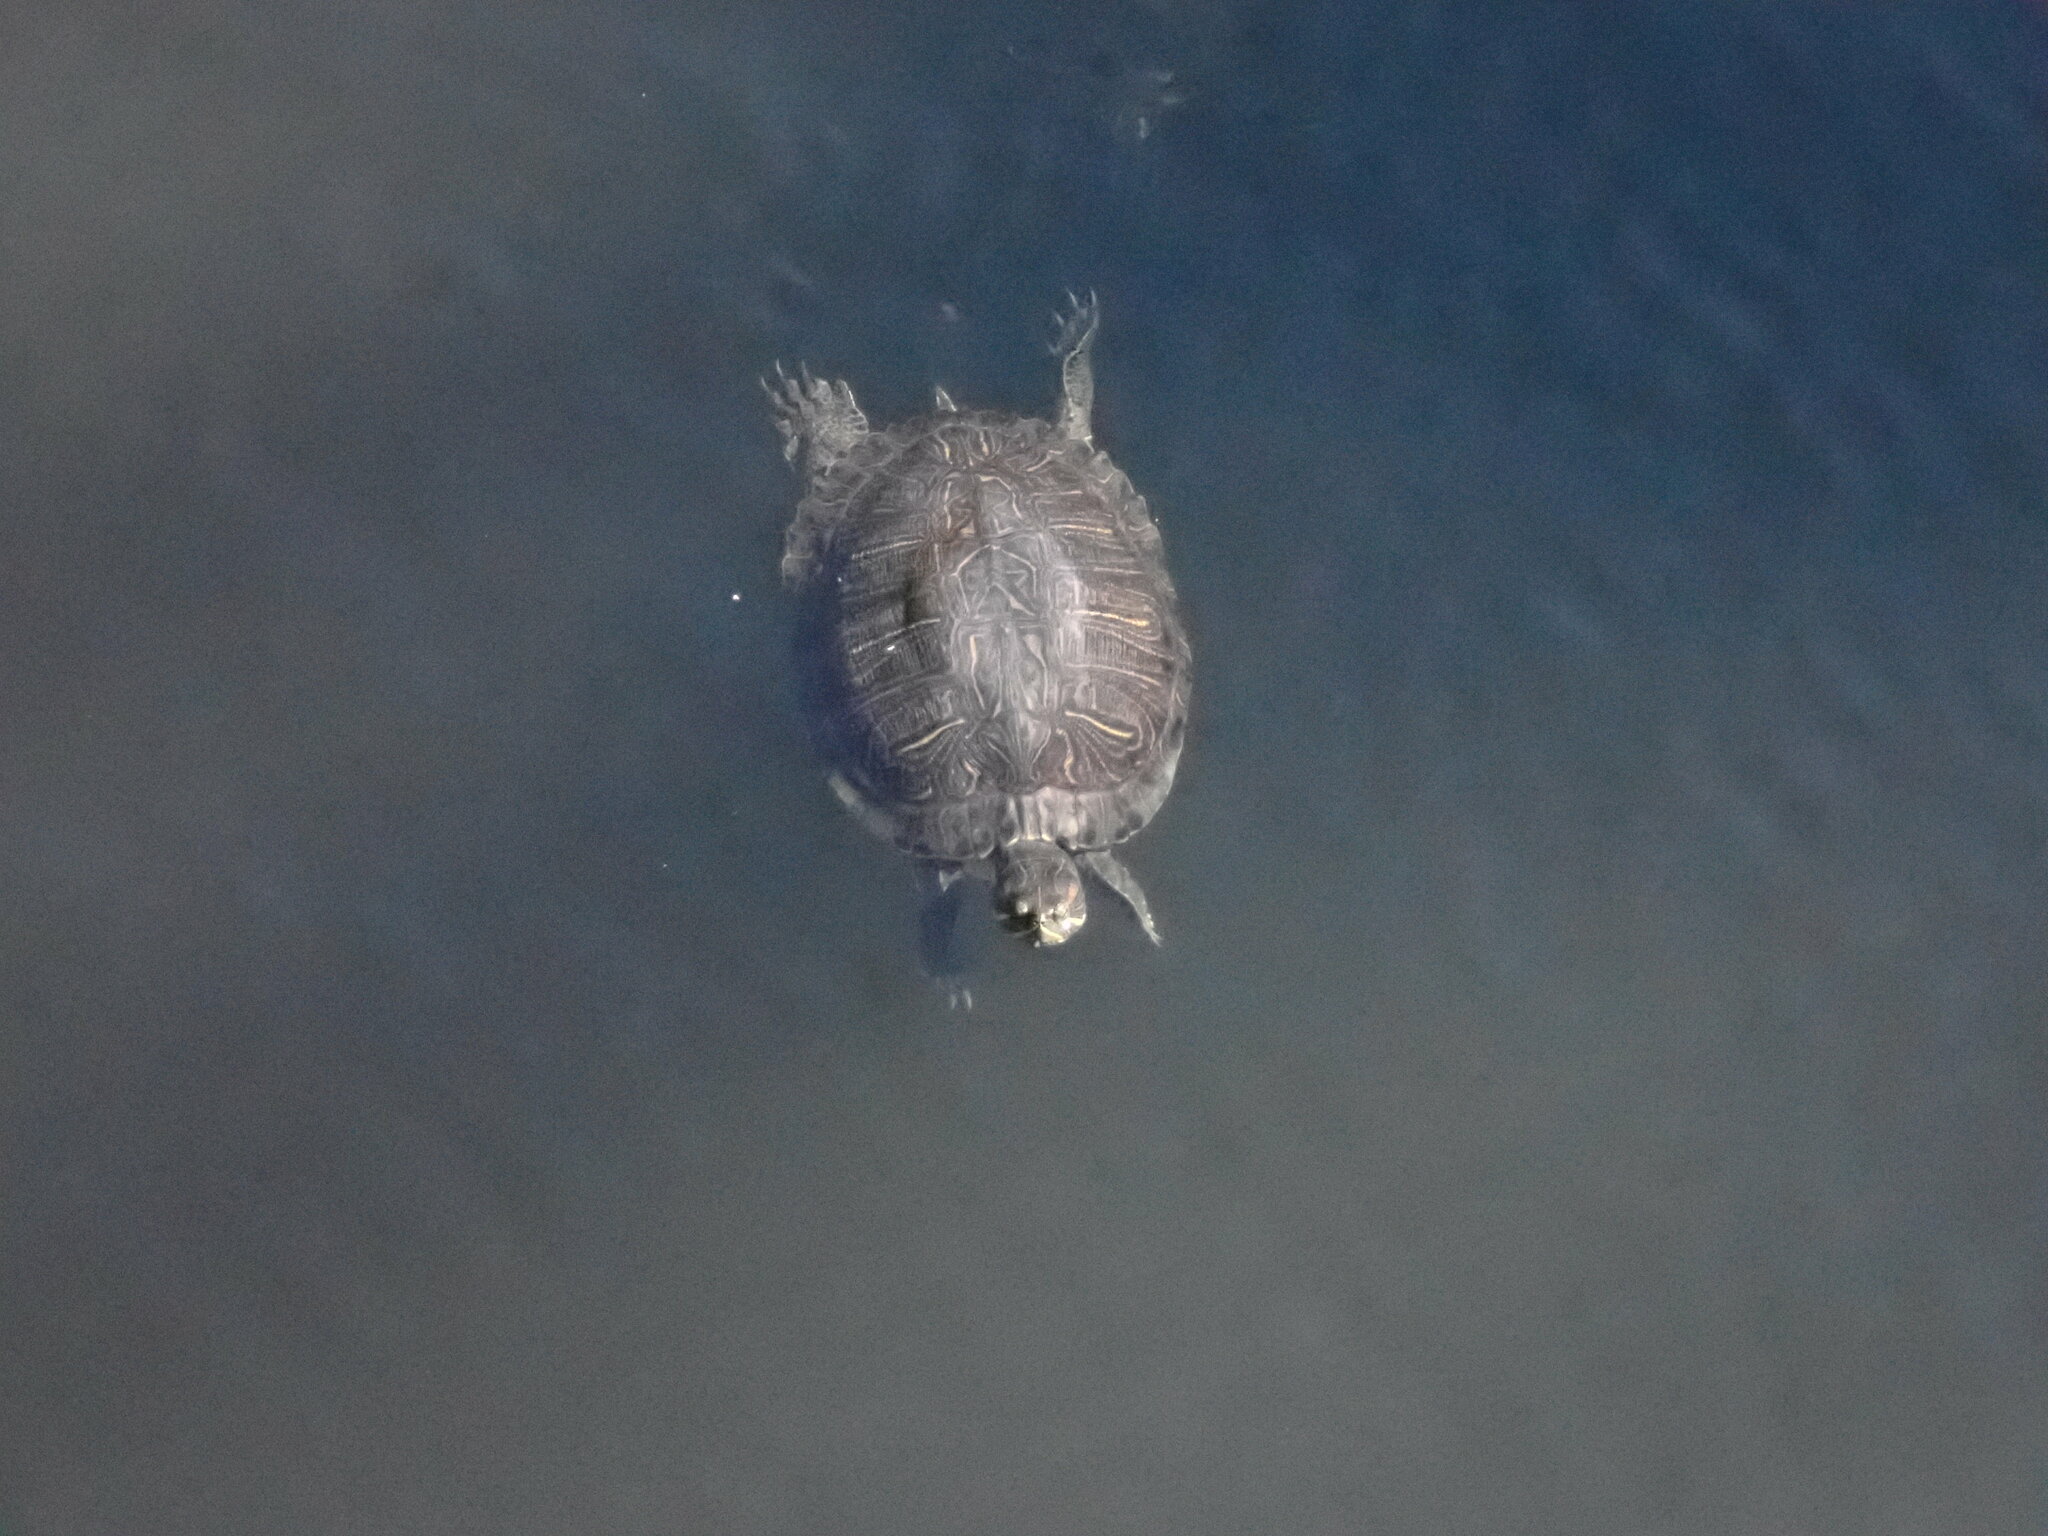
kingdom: Animalia
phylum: Chordata
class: Testudines
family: Emydidae
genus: Trachemys
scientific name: Trachemys scripta
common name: Slider
